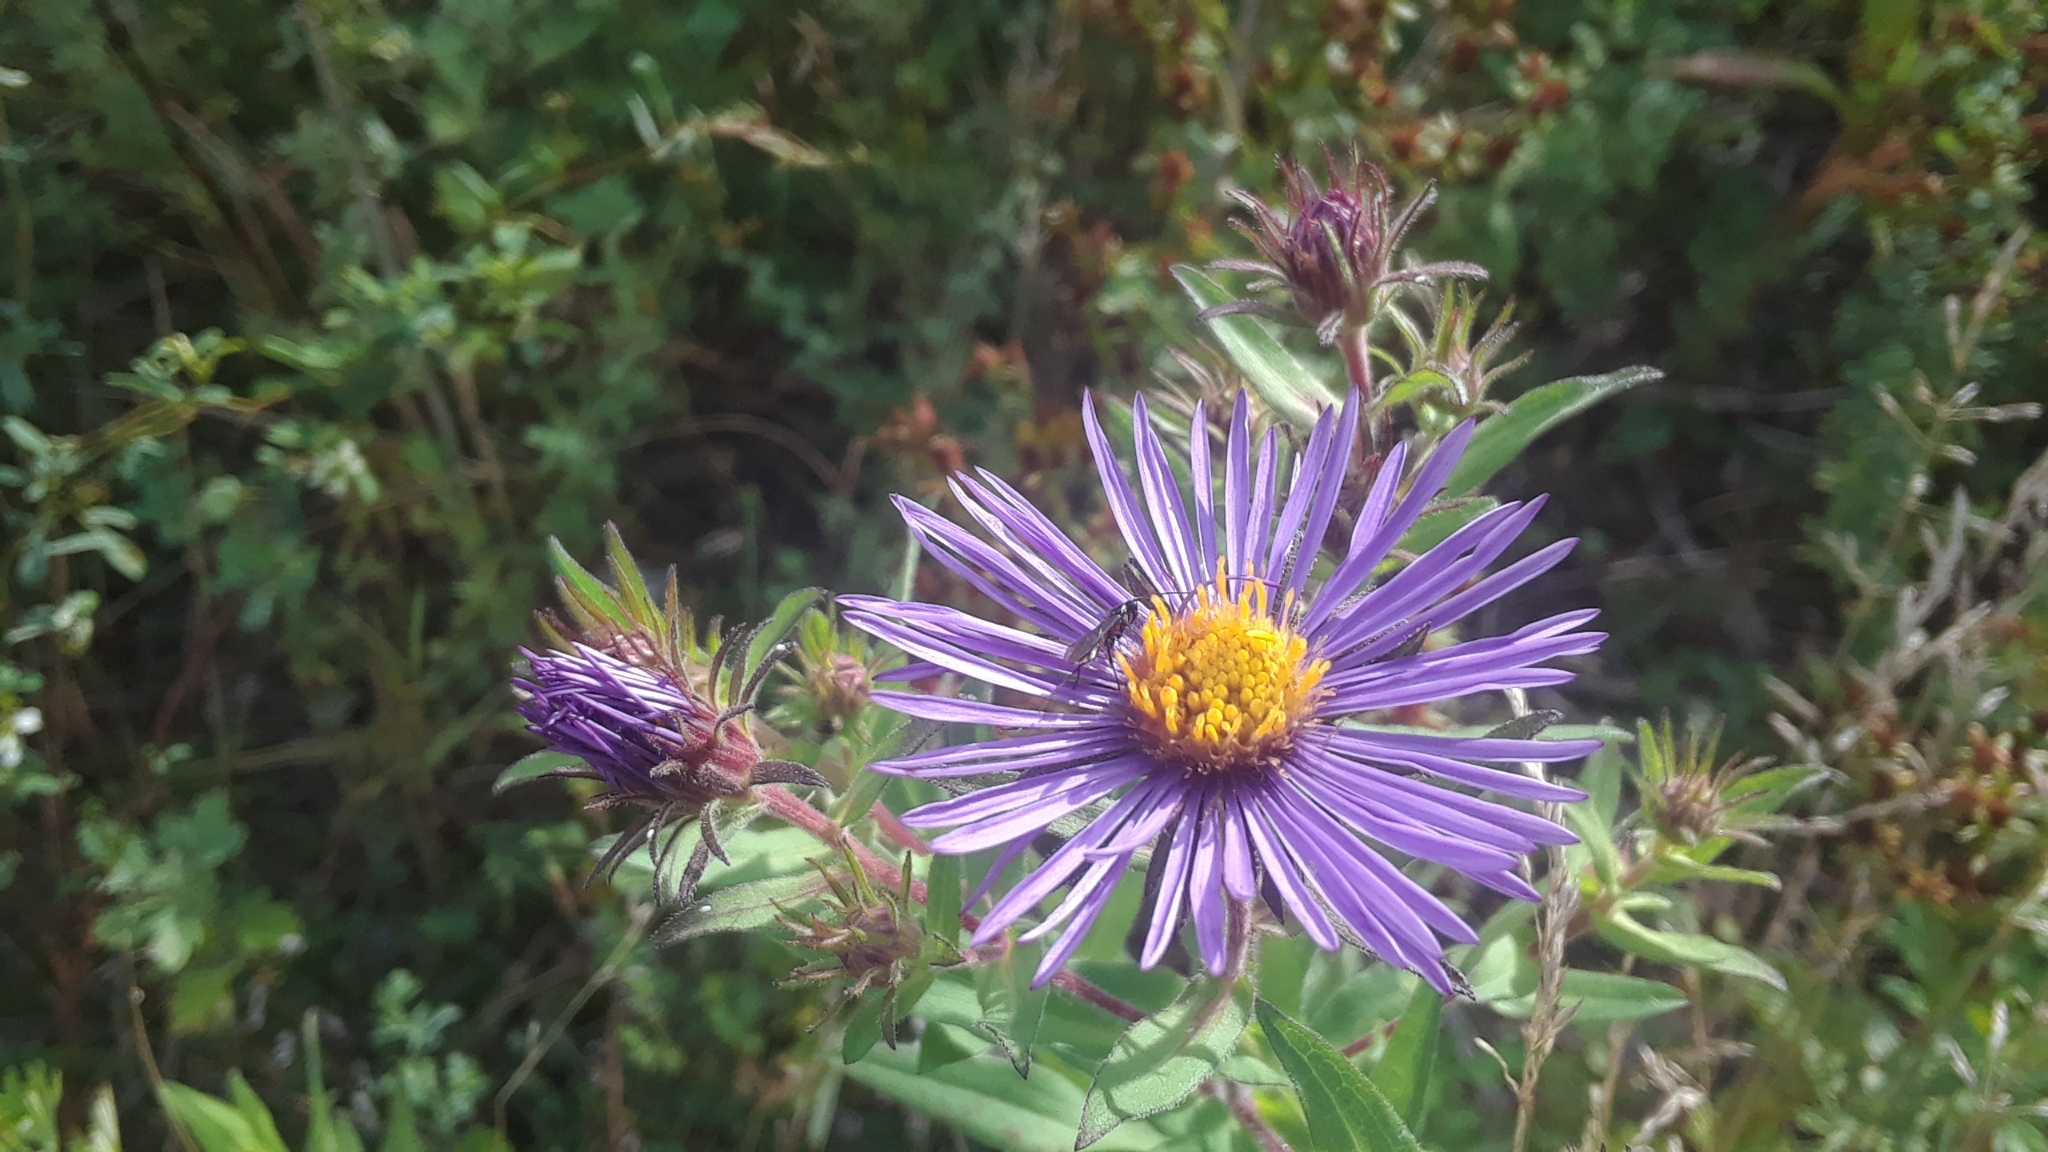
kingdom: Plantae
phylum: Tracheophyta
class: Magnoliopsida
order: Asterales
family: Asteraceae
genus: Symphyotrichum
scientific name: Symphyotrichum novae-angliae
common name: Michaelmas daisy
